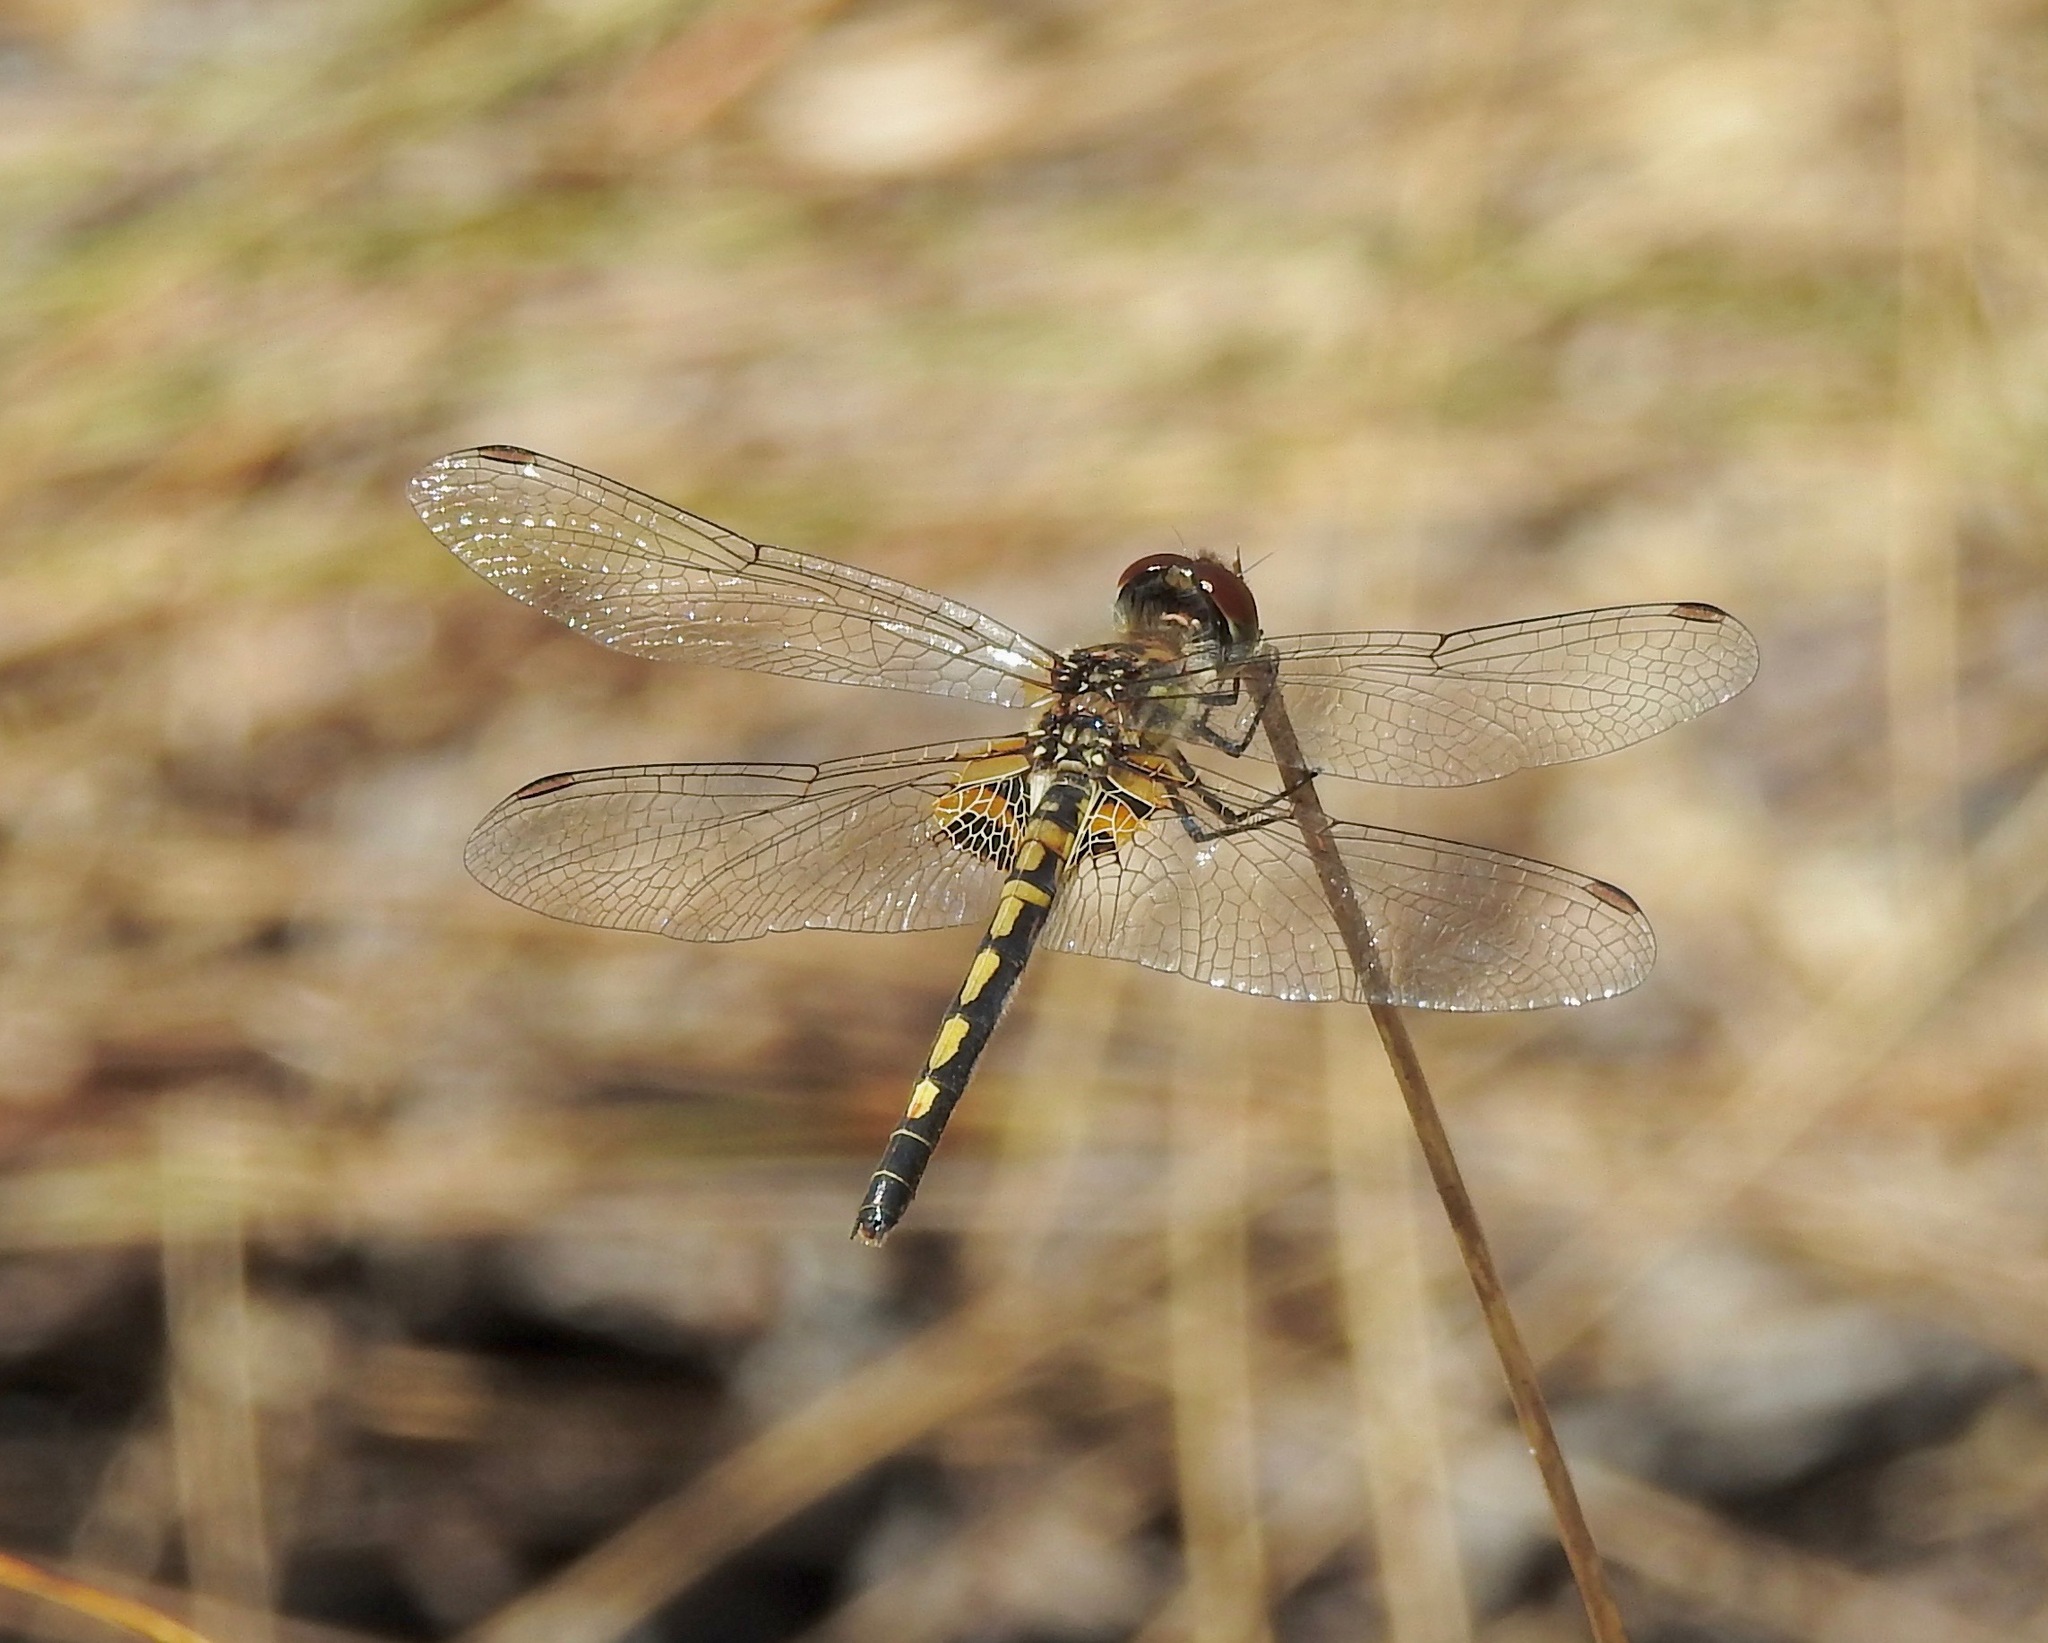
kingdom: Animalia
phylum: Arthropoda
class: Insecta
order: Odonata
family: Libellulidae
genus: Celithemis
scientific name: Celithemis ornata
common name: Ornate pennant
